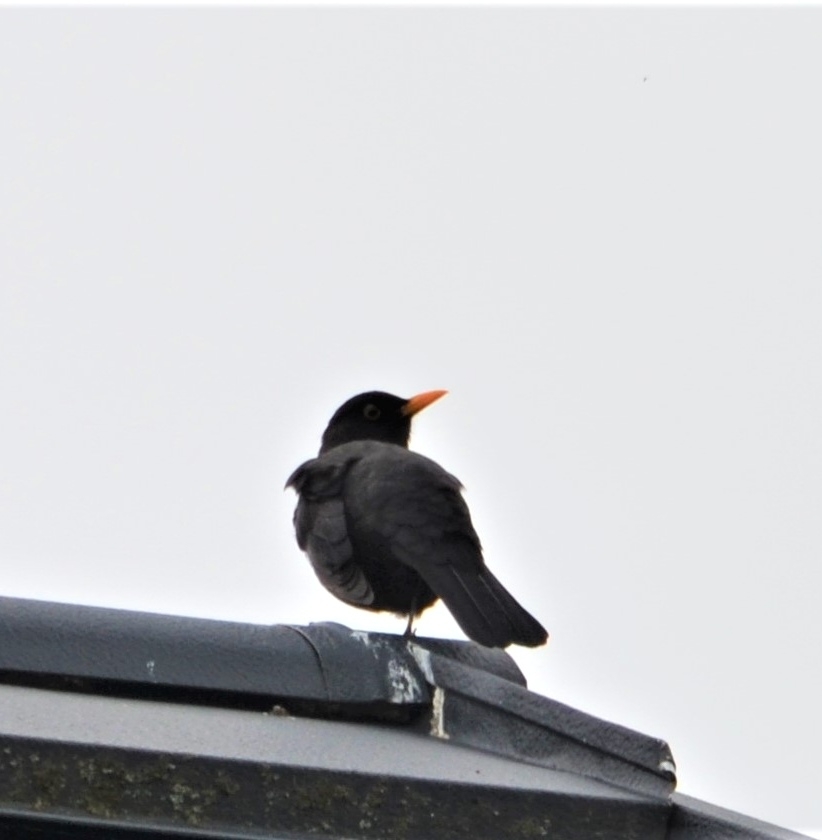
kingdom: Animalia
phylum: Chordata
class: Aves
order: Passeriformes
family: Turdidae
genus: Turdus
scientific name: Turdus merula
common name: Common blackbird
